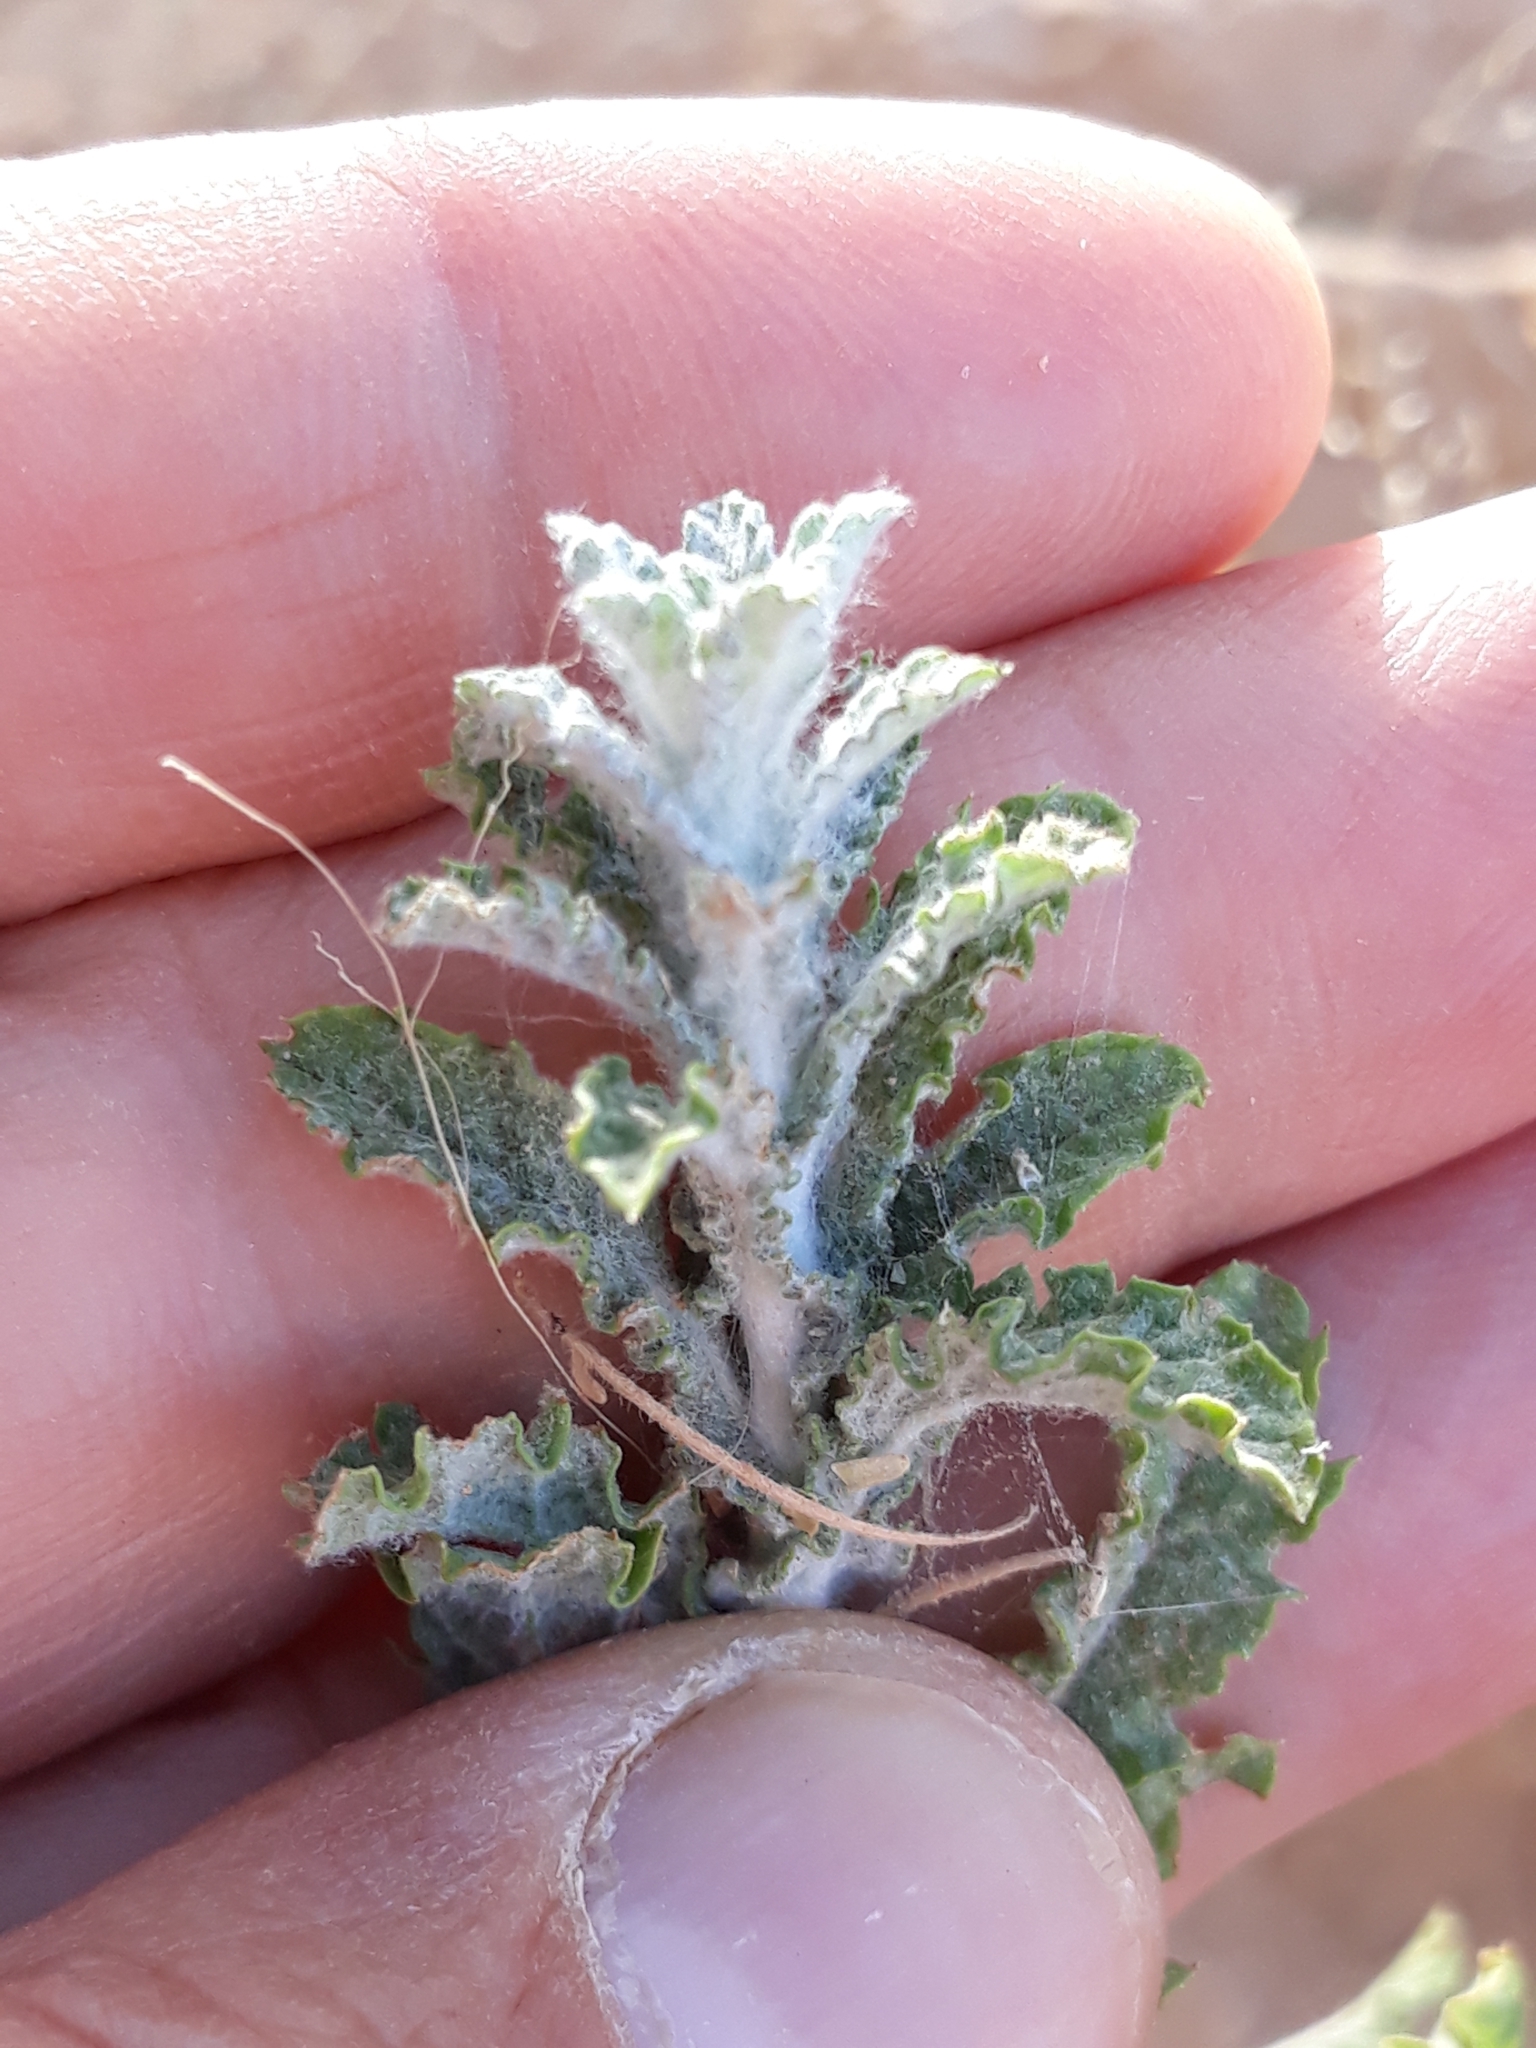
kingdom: Plantae
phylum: Tracheophyta
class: Magnoliopsida
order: Asterales
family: Asteraceae
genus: Pulicaria
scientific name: Pulicaria undulata
